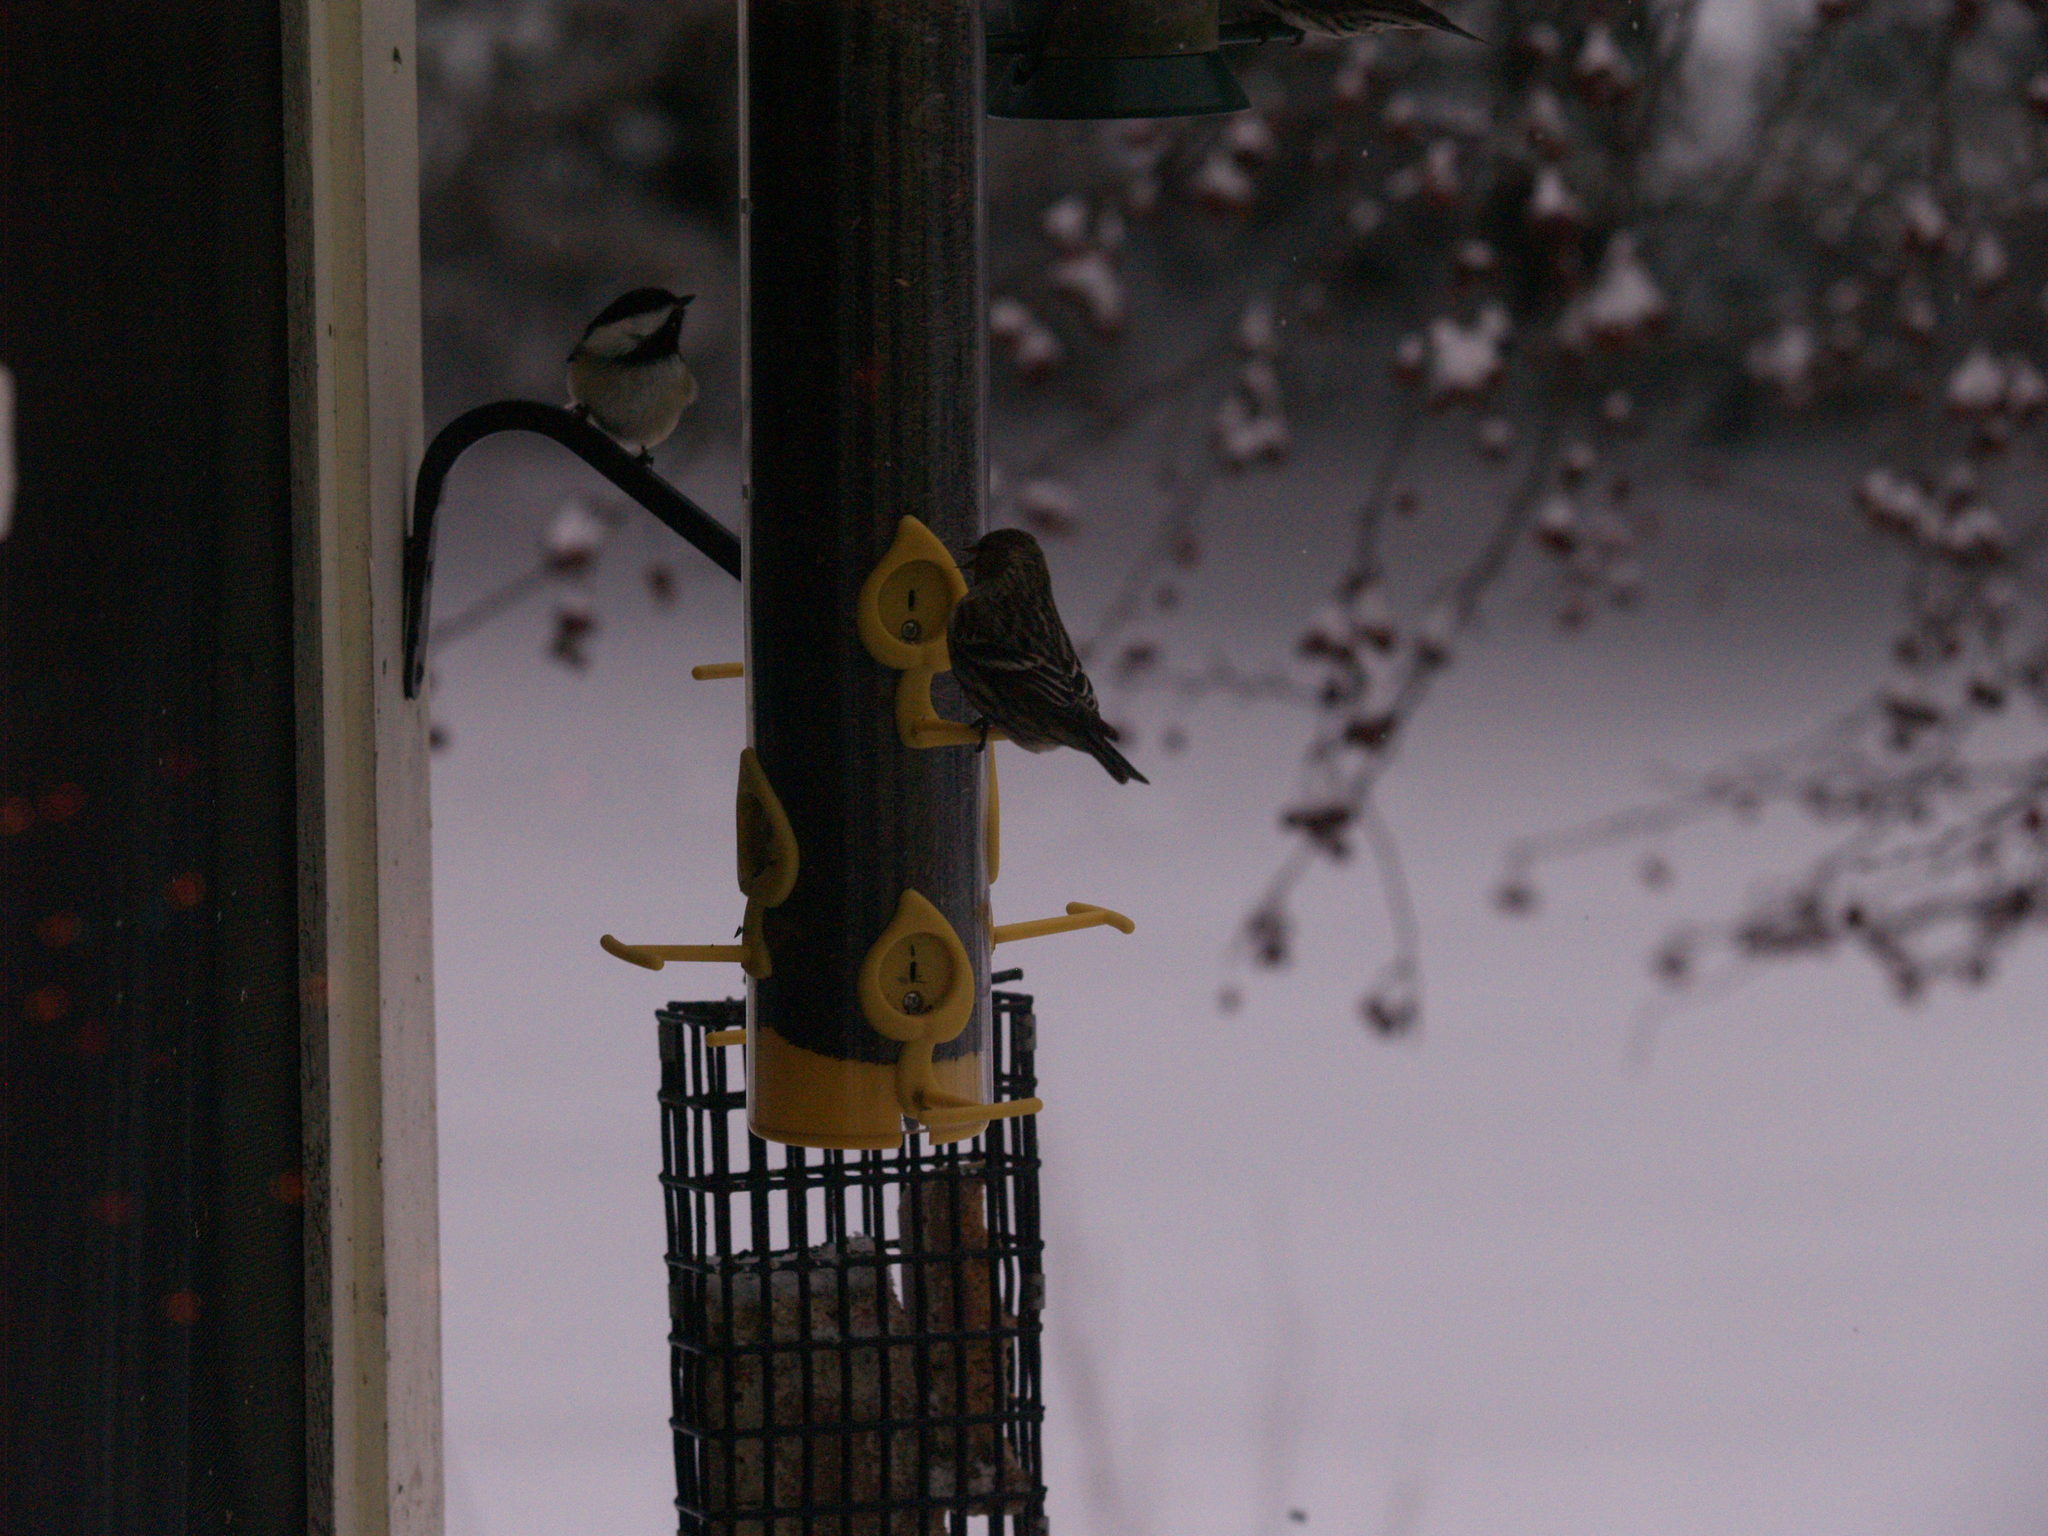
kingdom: Animalia
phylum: Chordata
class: Aves
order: Passeriformes
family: Fringillidae
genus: Spinus
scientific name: Spinus pinus
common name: Pine siskin
